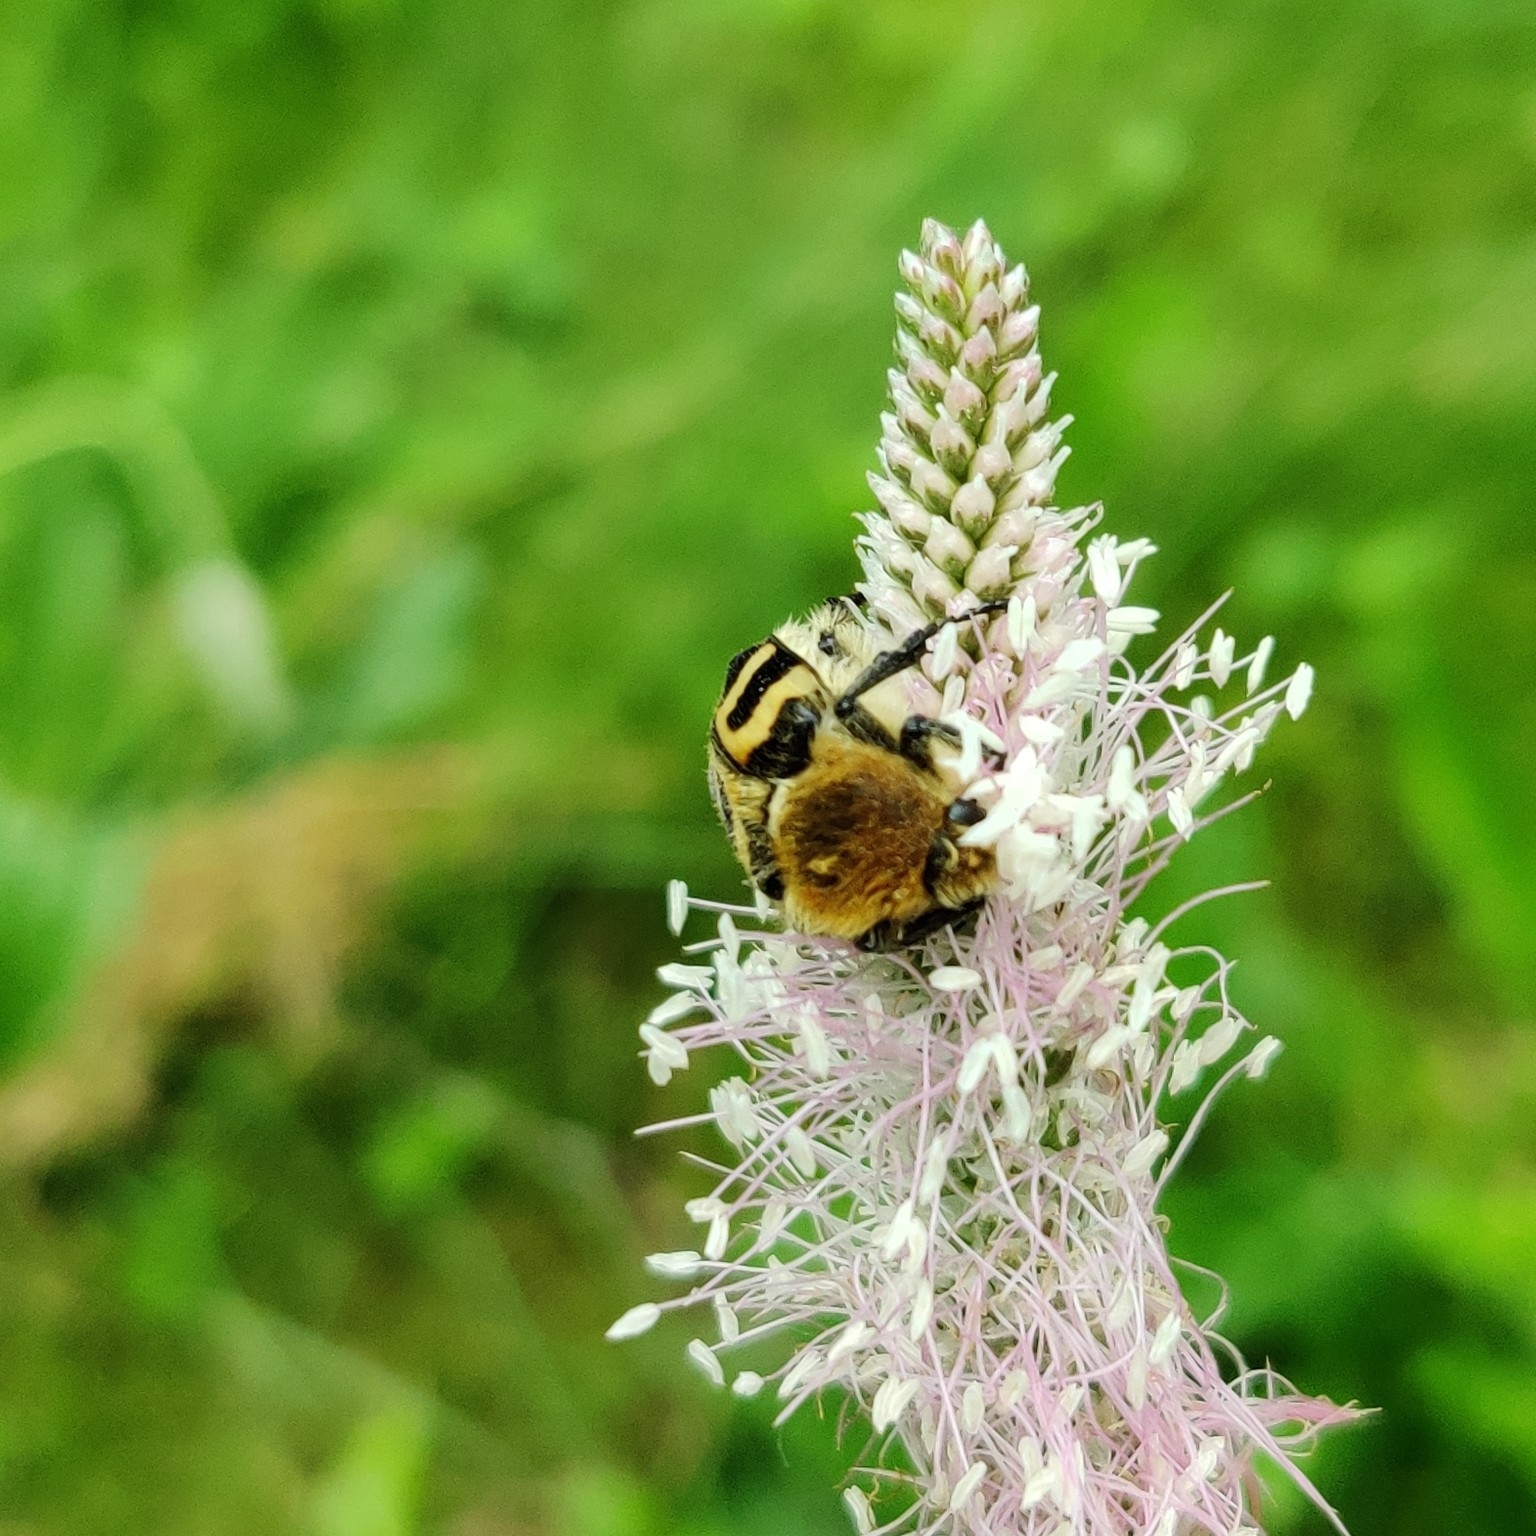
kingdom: Animalia
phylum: Arthropoda
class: Insecta
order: Coleoptera
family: Scarabaeidae
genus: Trichius
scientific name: Trichius fasciatus
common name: Bee beetle
